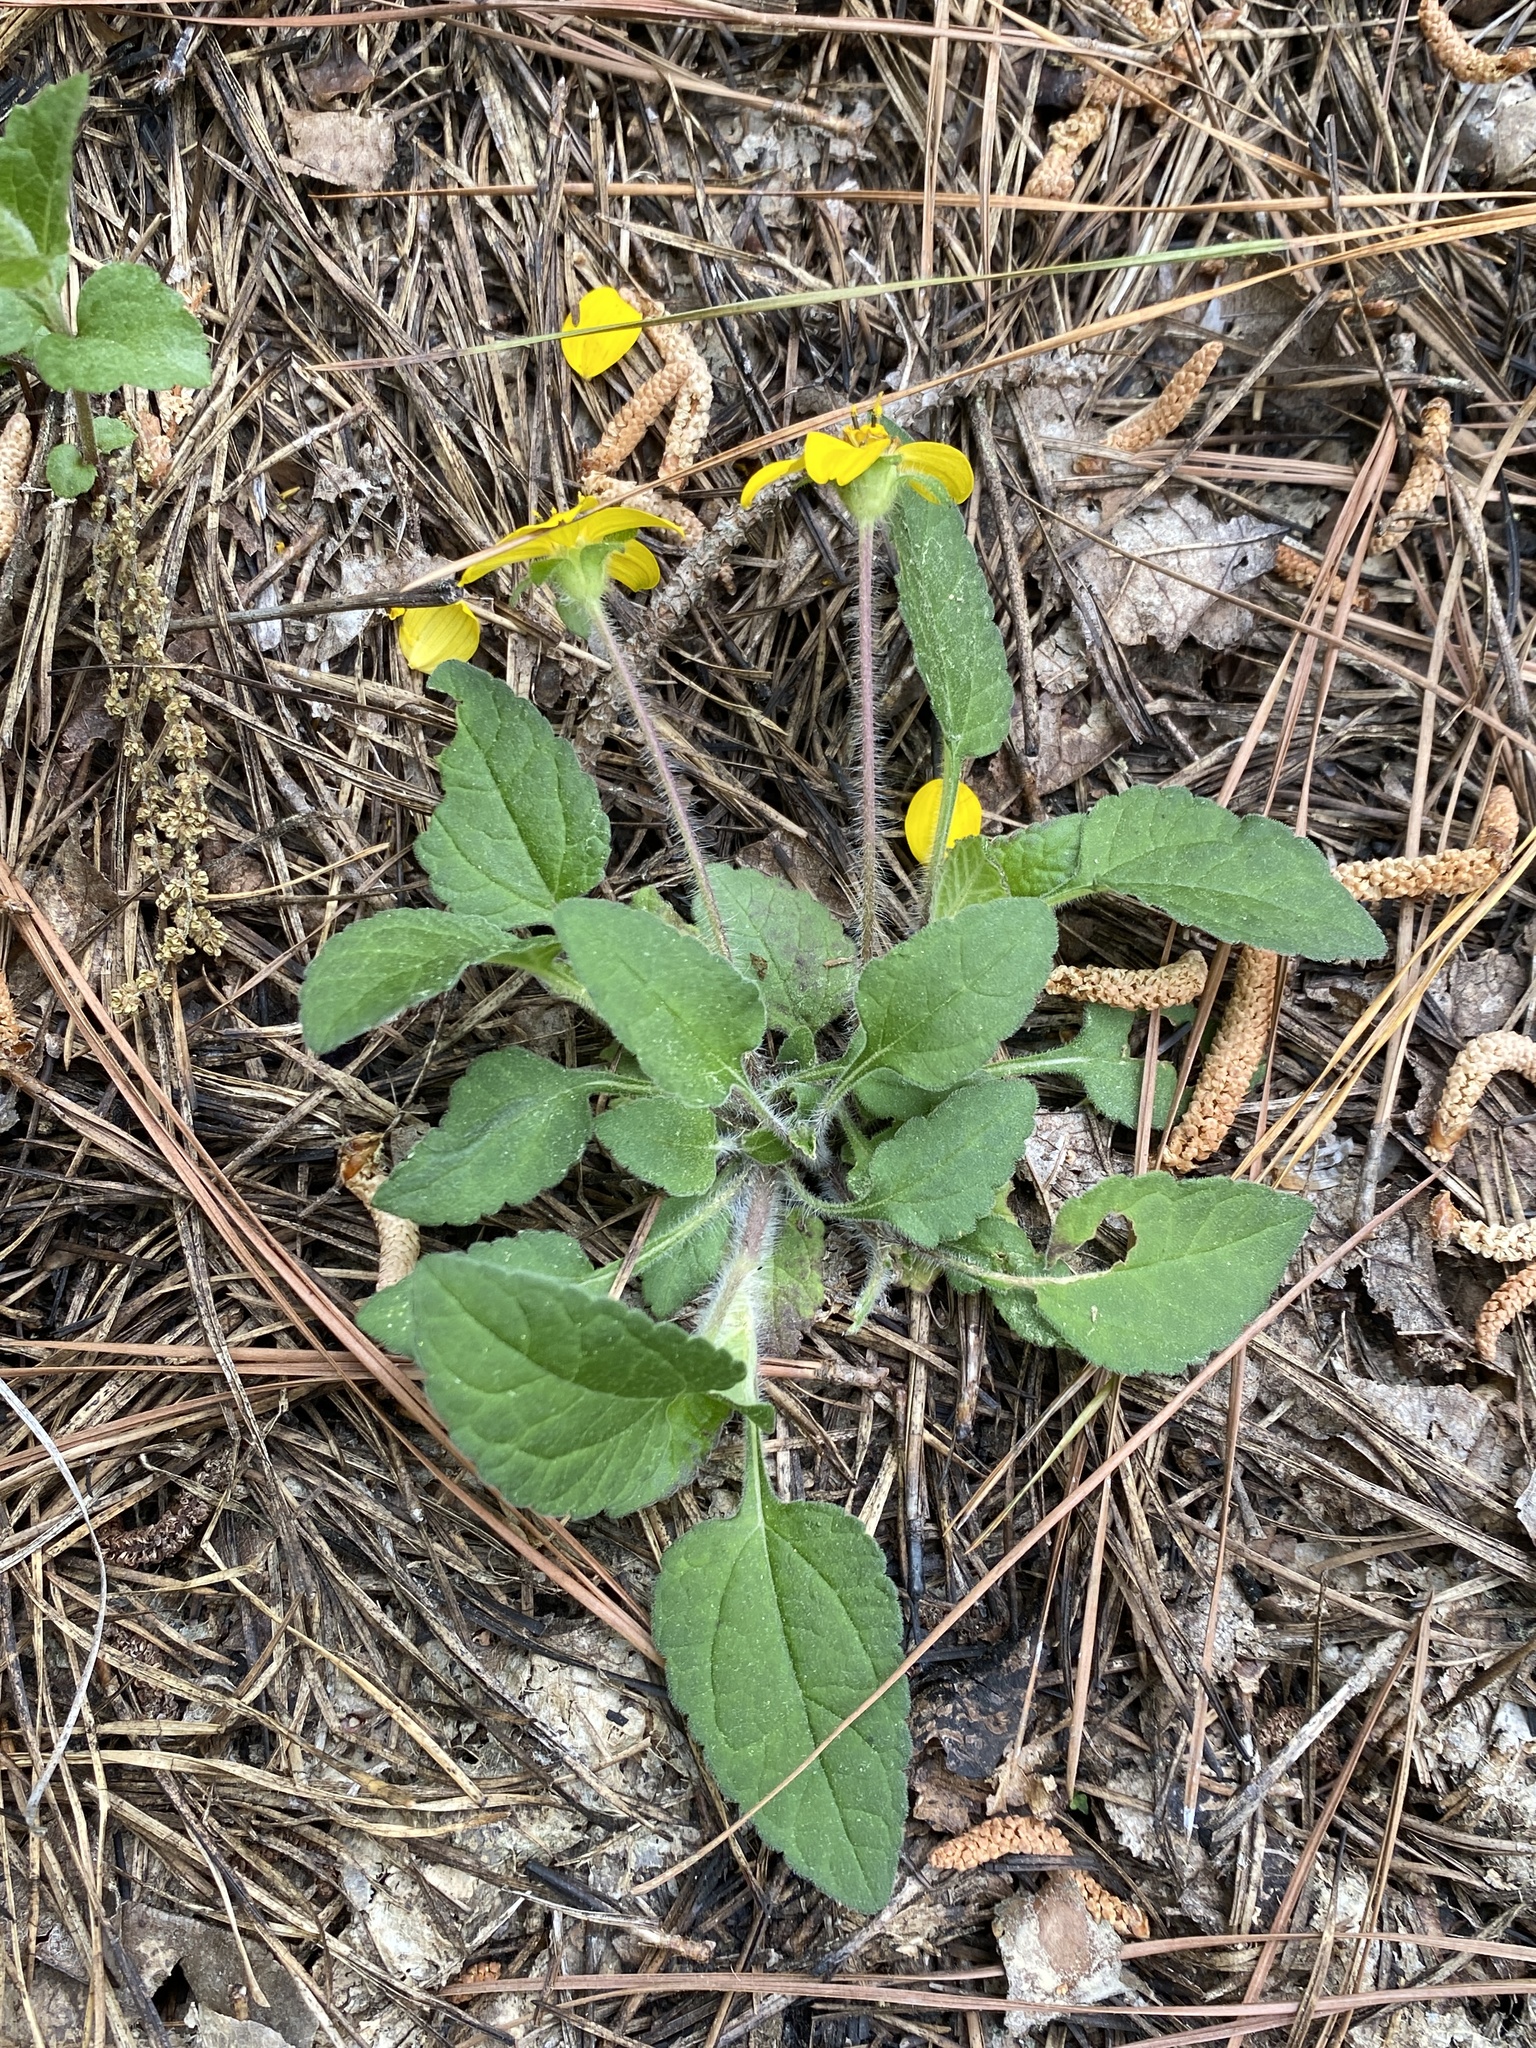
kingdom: Plantae
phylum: Tracheophyta
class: Magnoliopsida
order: Asterales
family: Asteraceae
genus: Chrysogonum
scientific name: Chrysogonum virginianum
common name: Golden-knee
